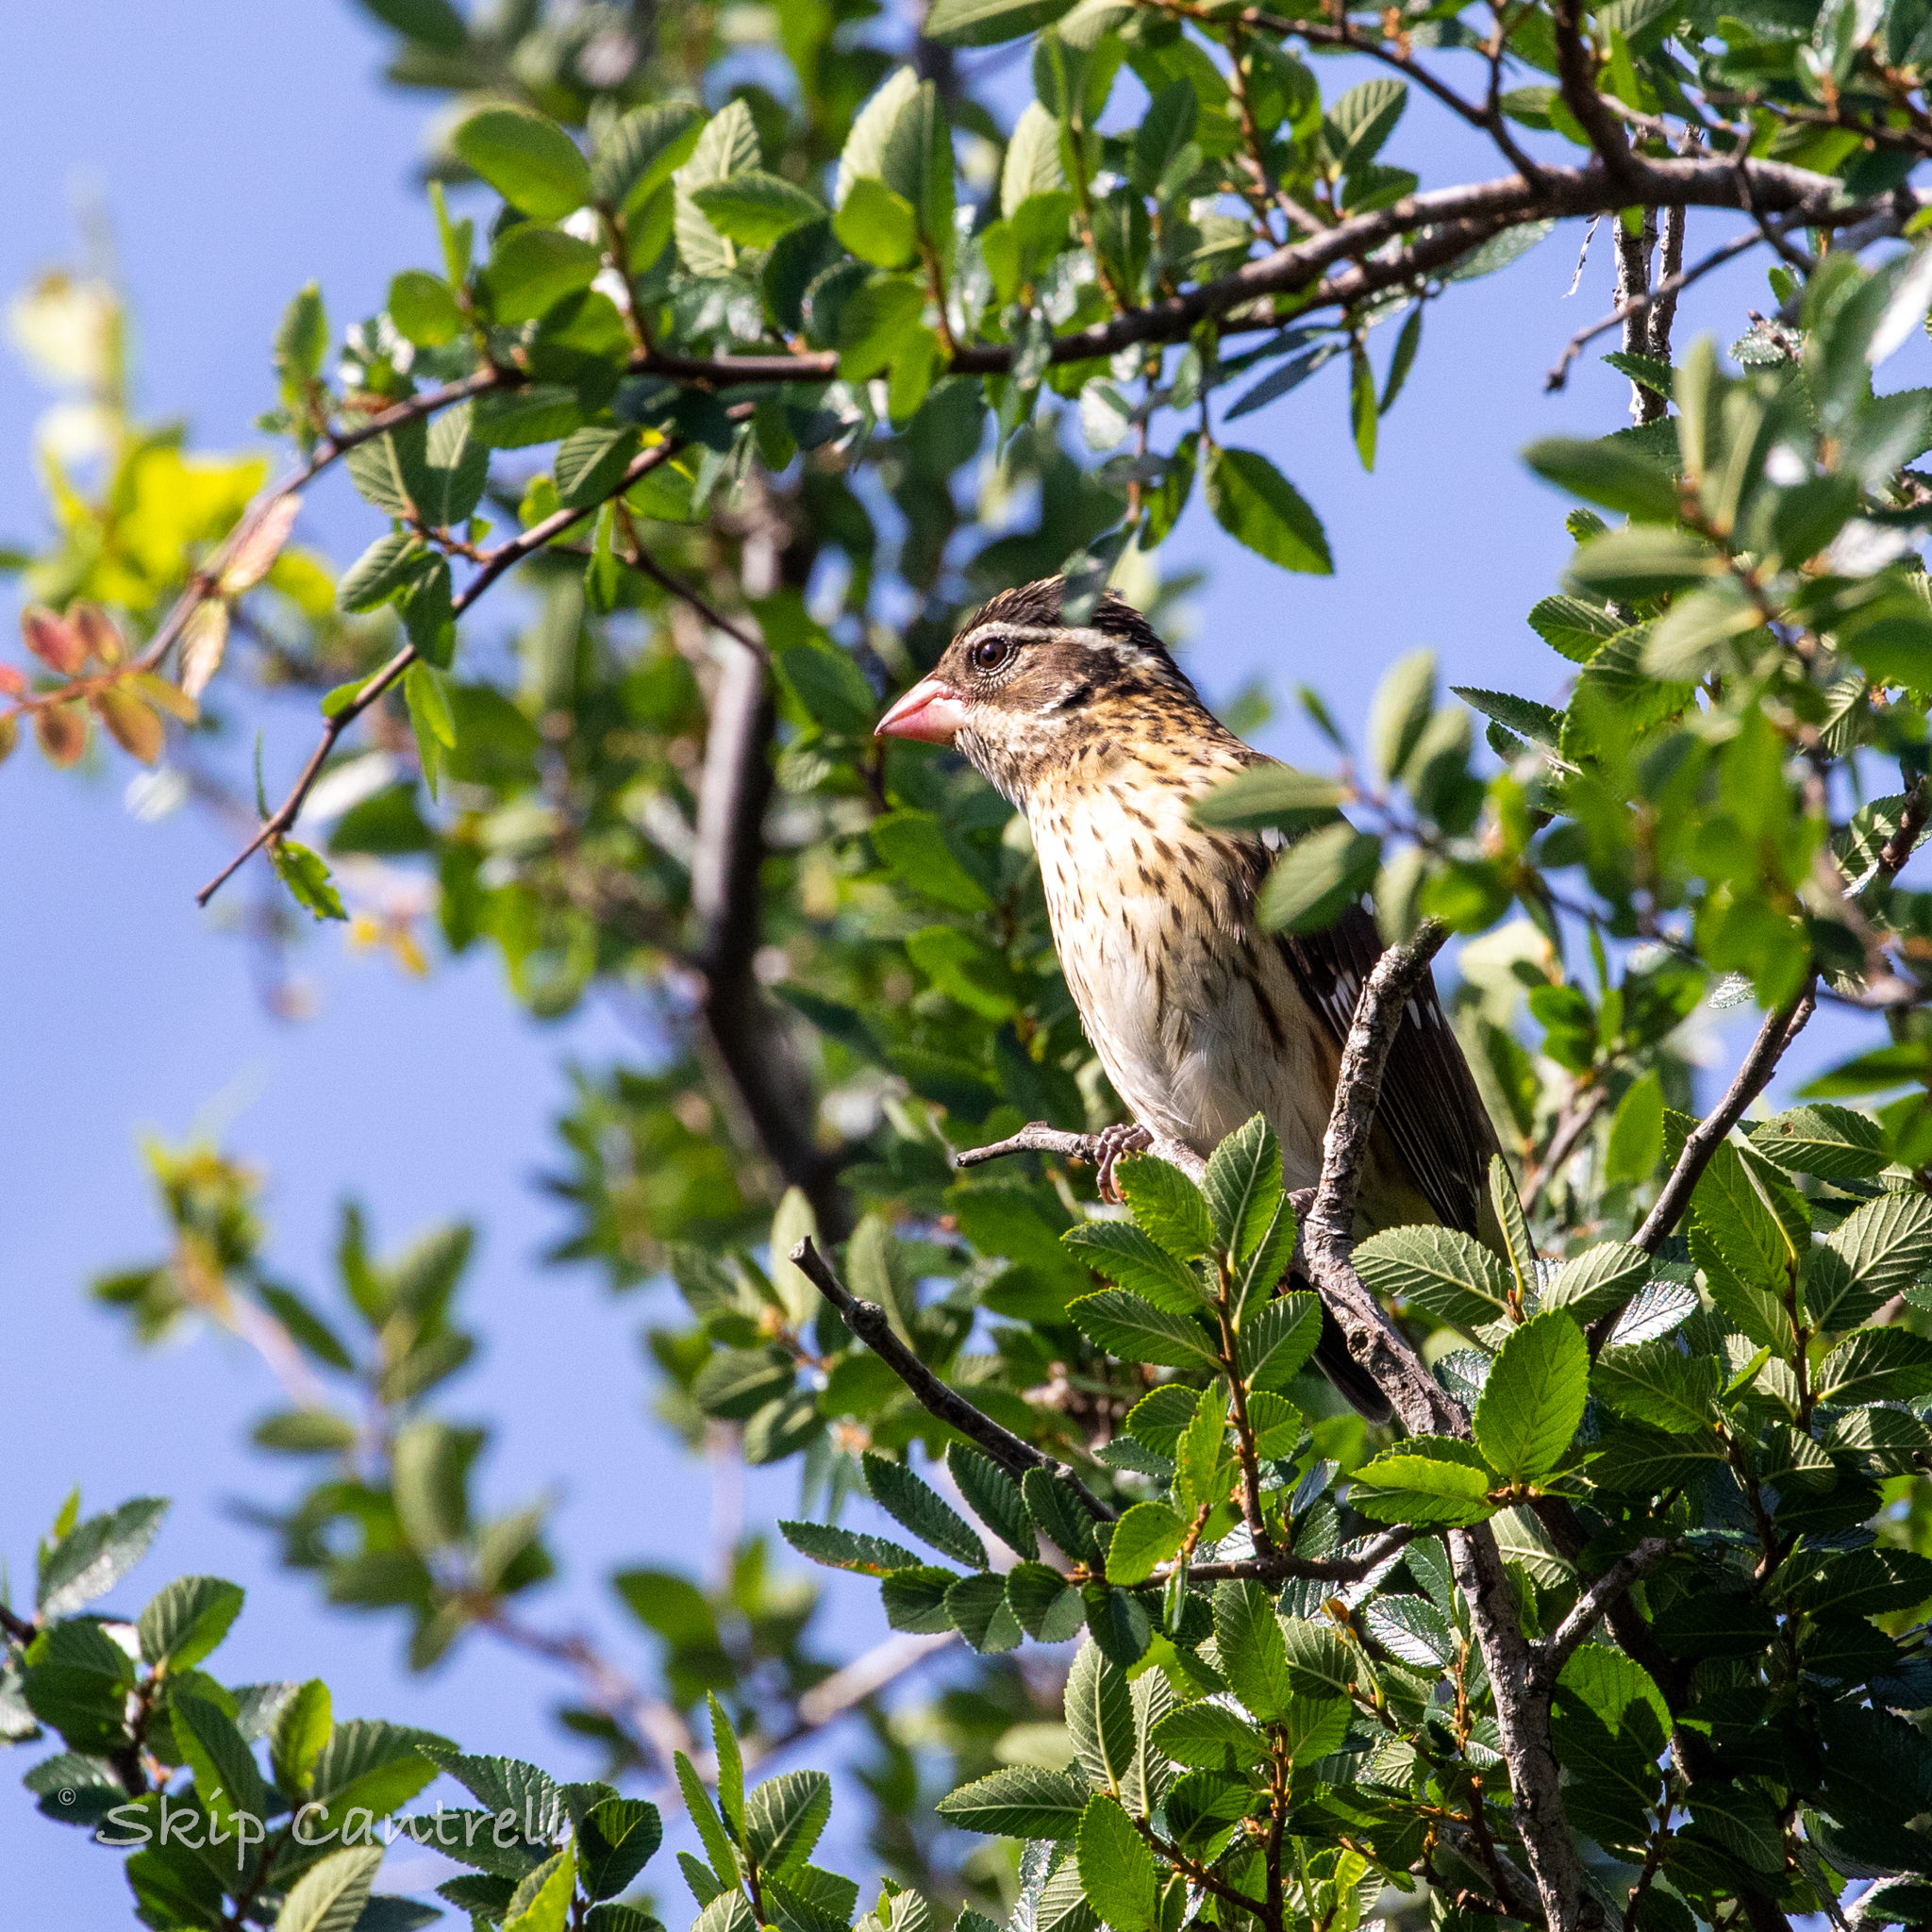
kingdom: Animalia
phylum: Chordata
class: Aves
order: Passeriformes
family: Cardinalidae
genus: Pheucticus
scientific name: Pheucticus ludovicianus
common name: Rose-breasted grosbeak
